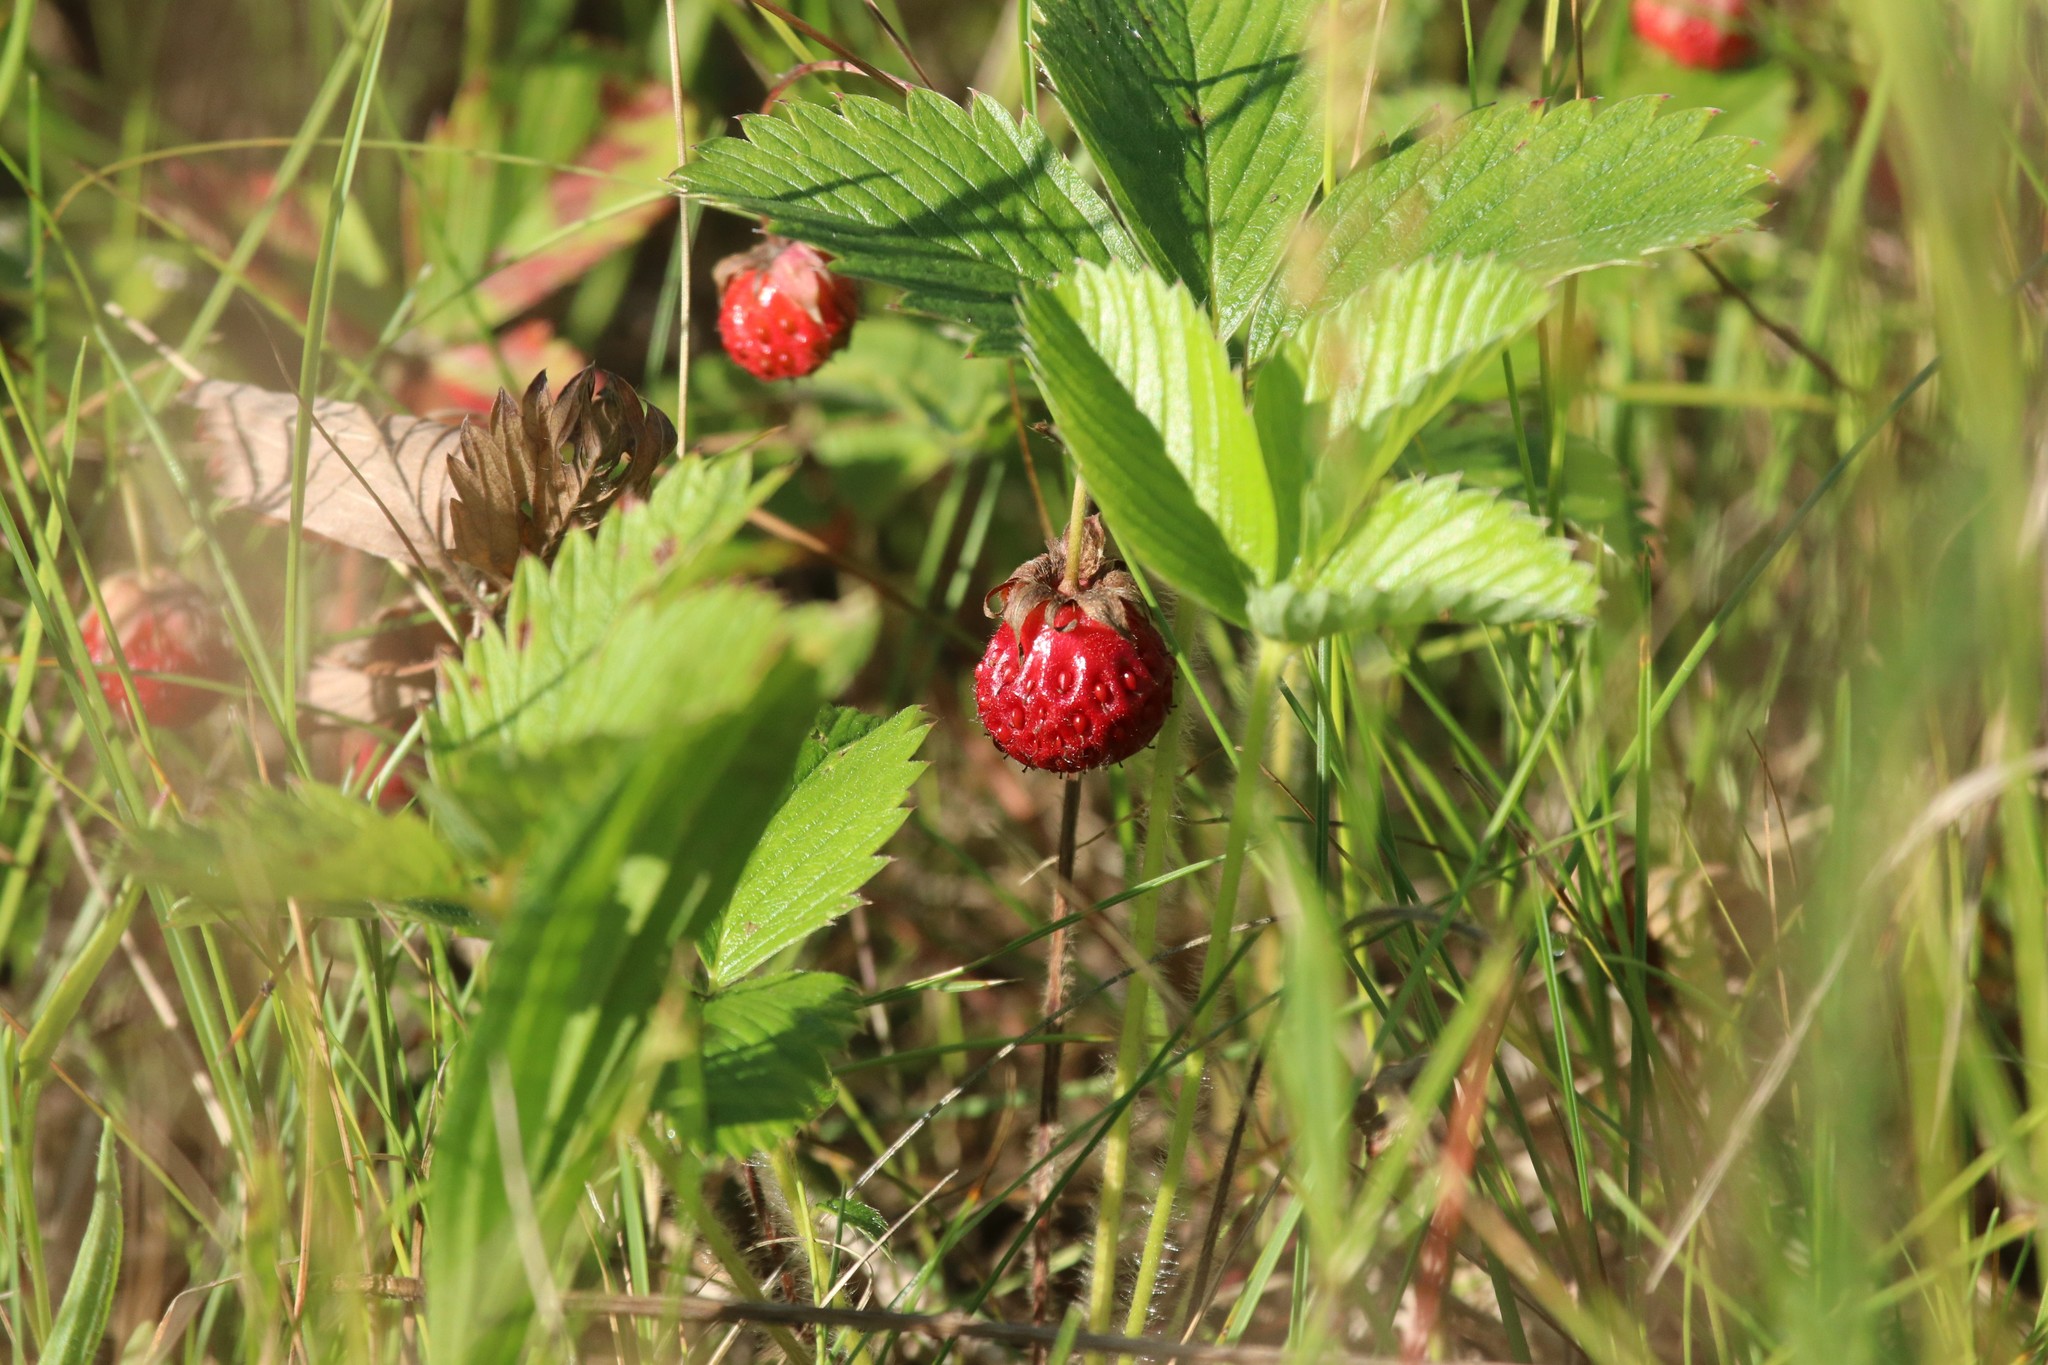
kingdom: Plantae
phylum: Tracheophyta
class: Magnoliopsida
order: Rosales
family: Rosaceae
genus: Fragaria
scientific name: Fragaria viridis
